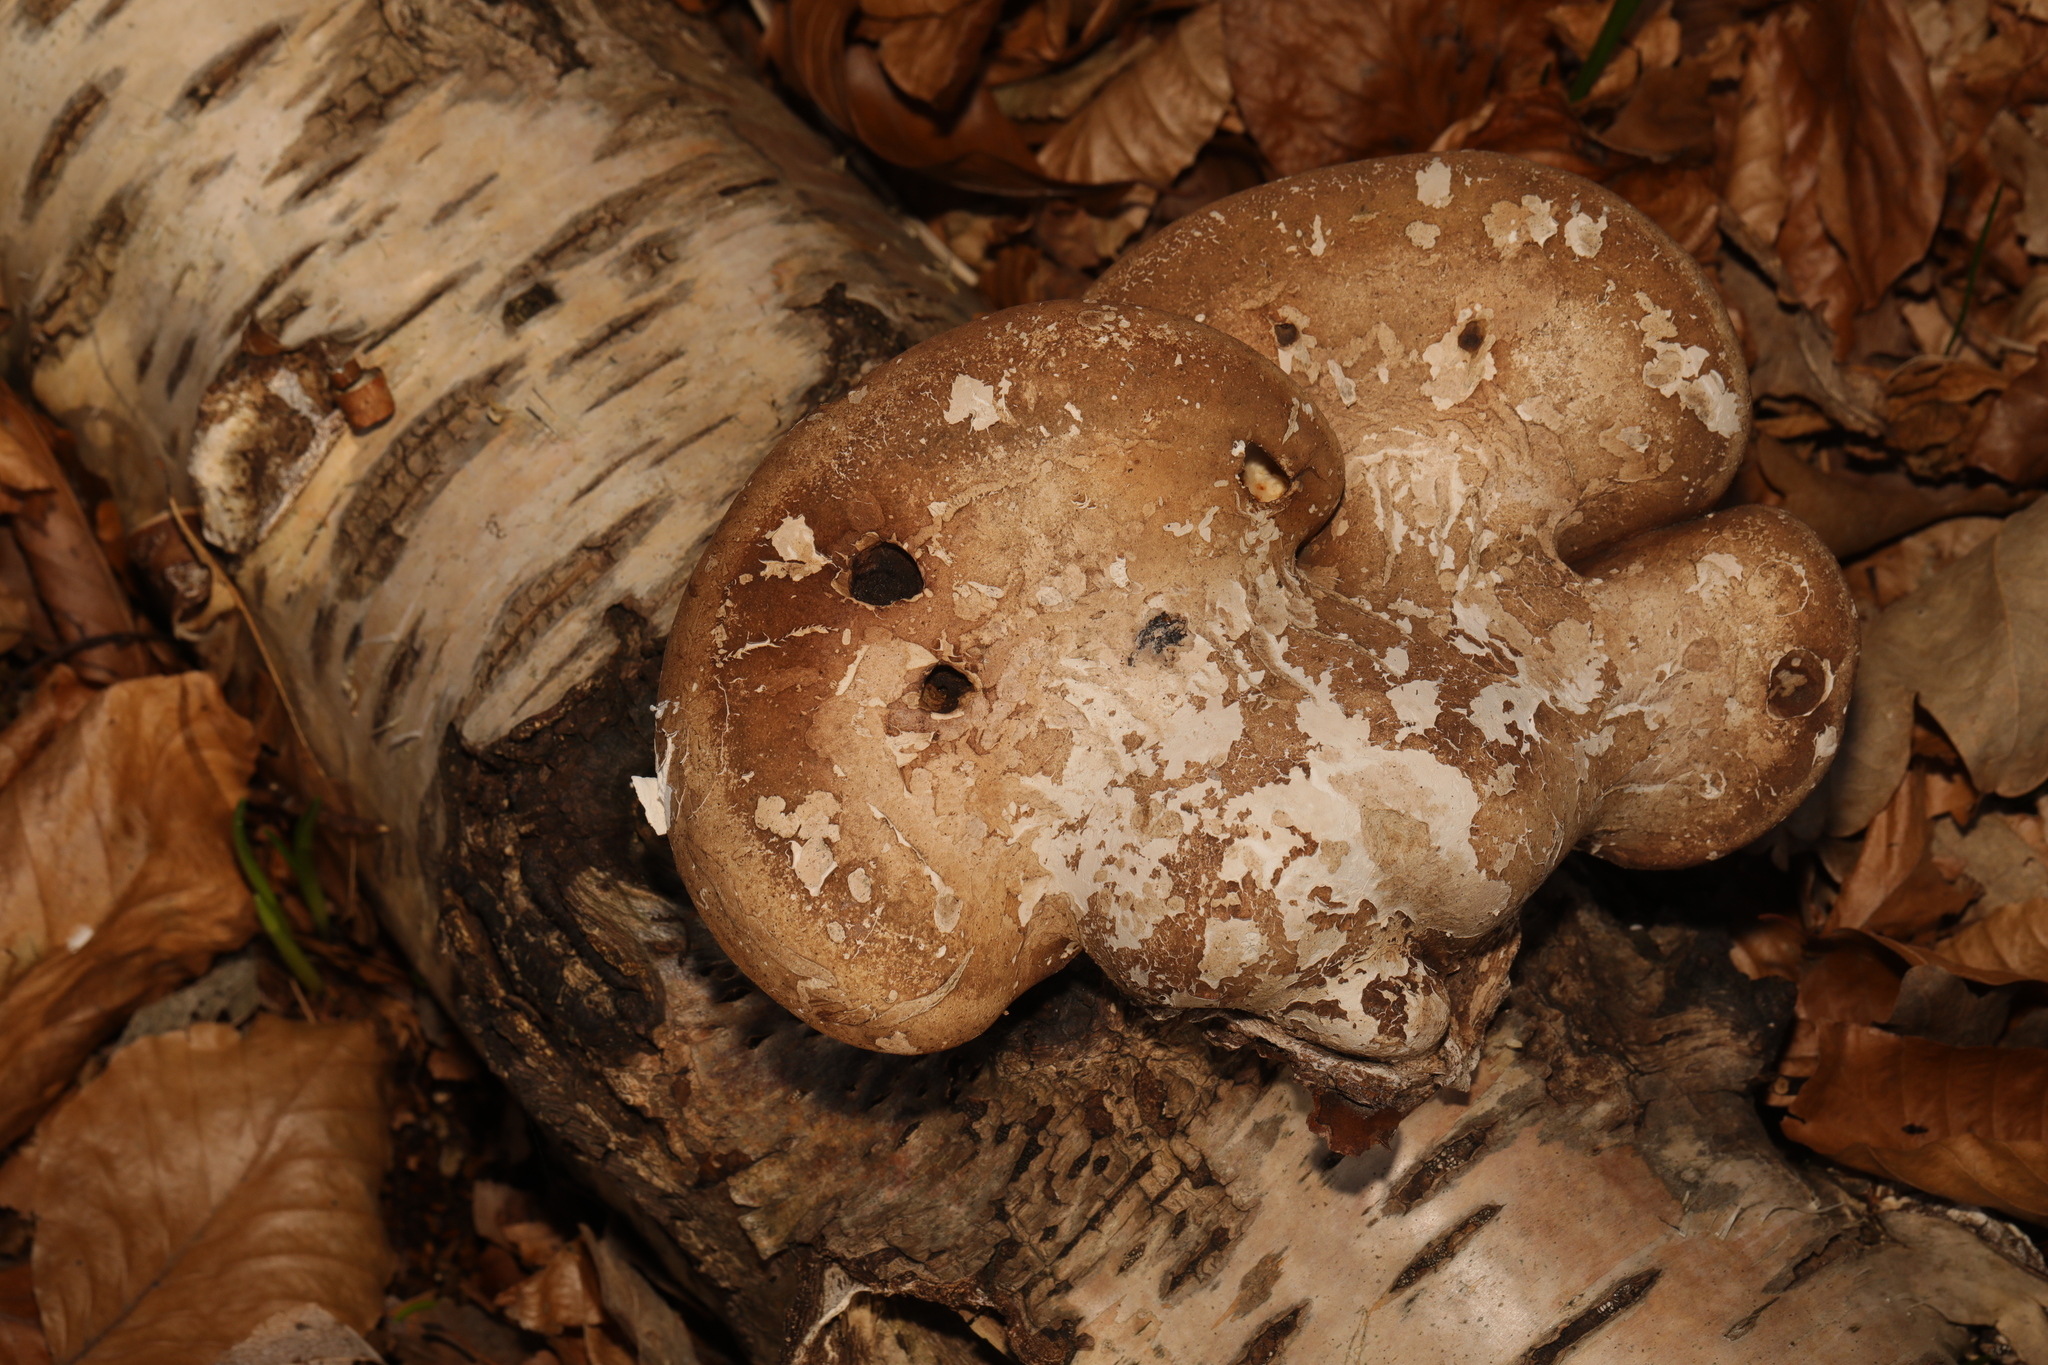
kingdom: Fungi
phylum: Basidiomycota
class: Agaricomycetes
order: Polyporales
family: Fomitopsidaceae
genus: Fomitopsis
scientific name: Fomitopsis betulina
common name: Birch polypore
